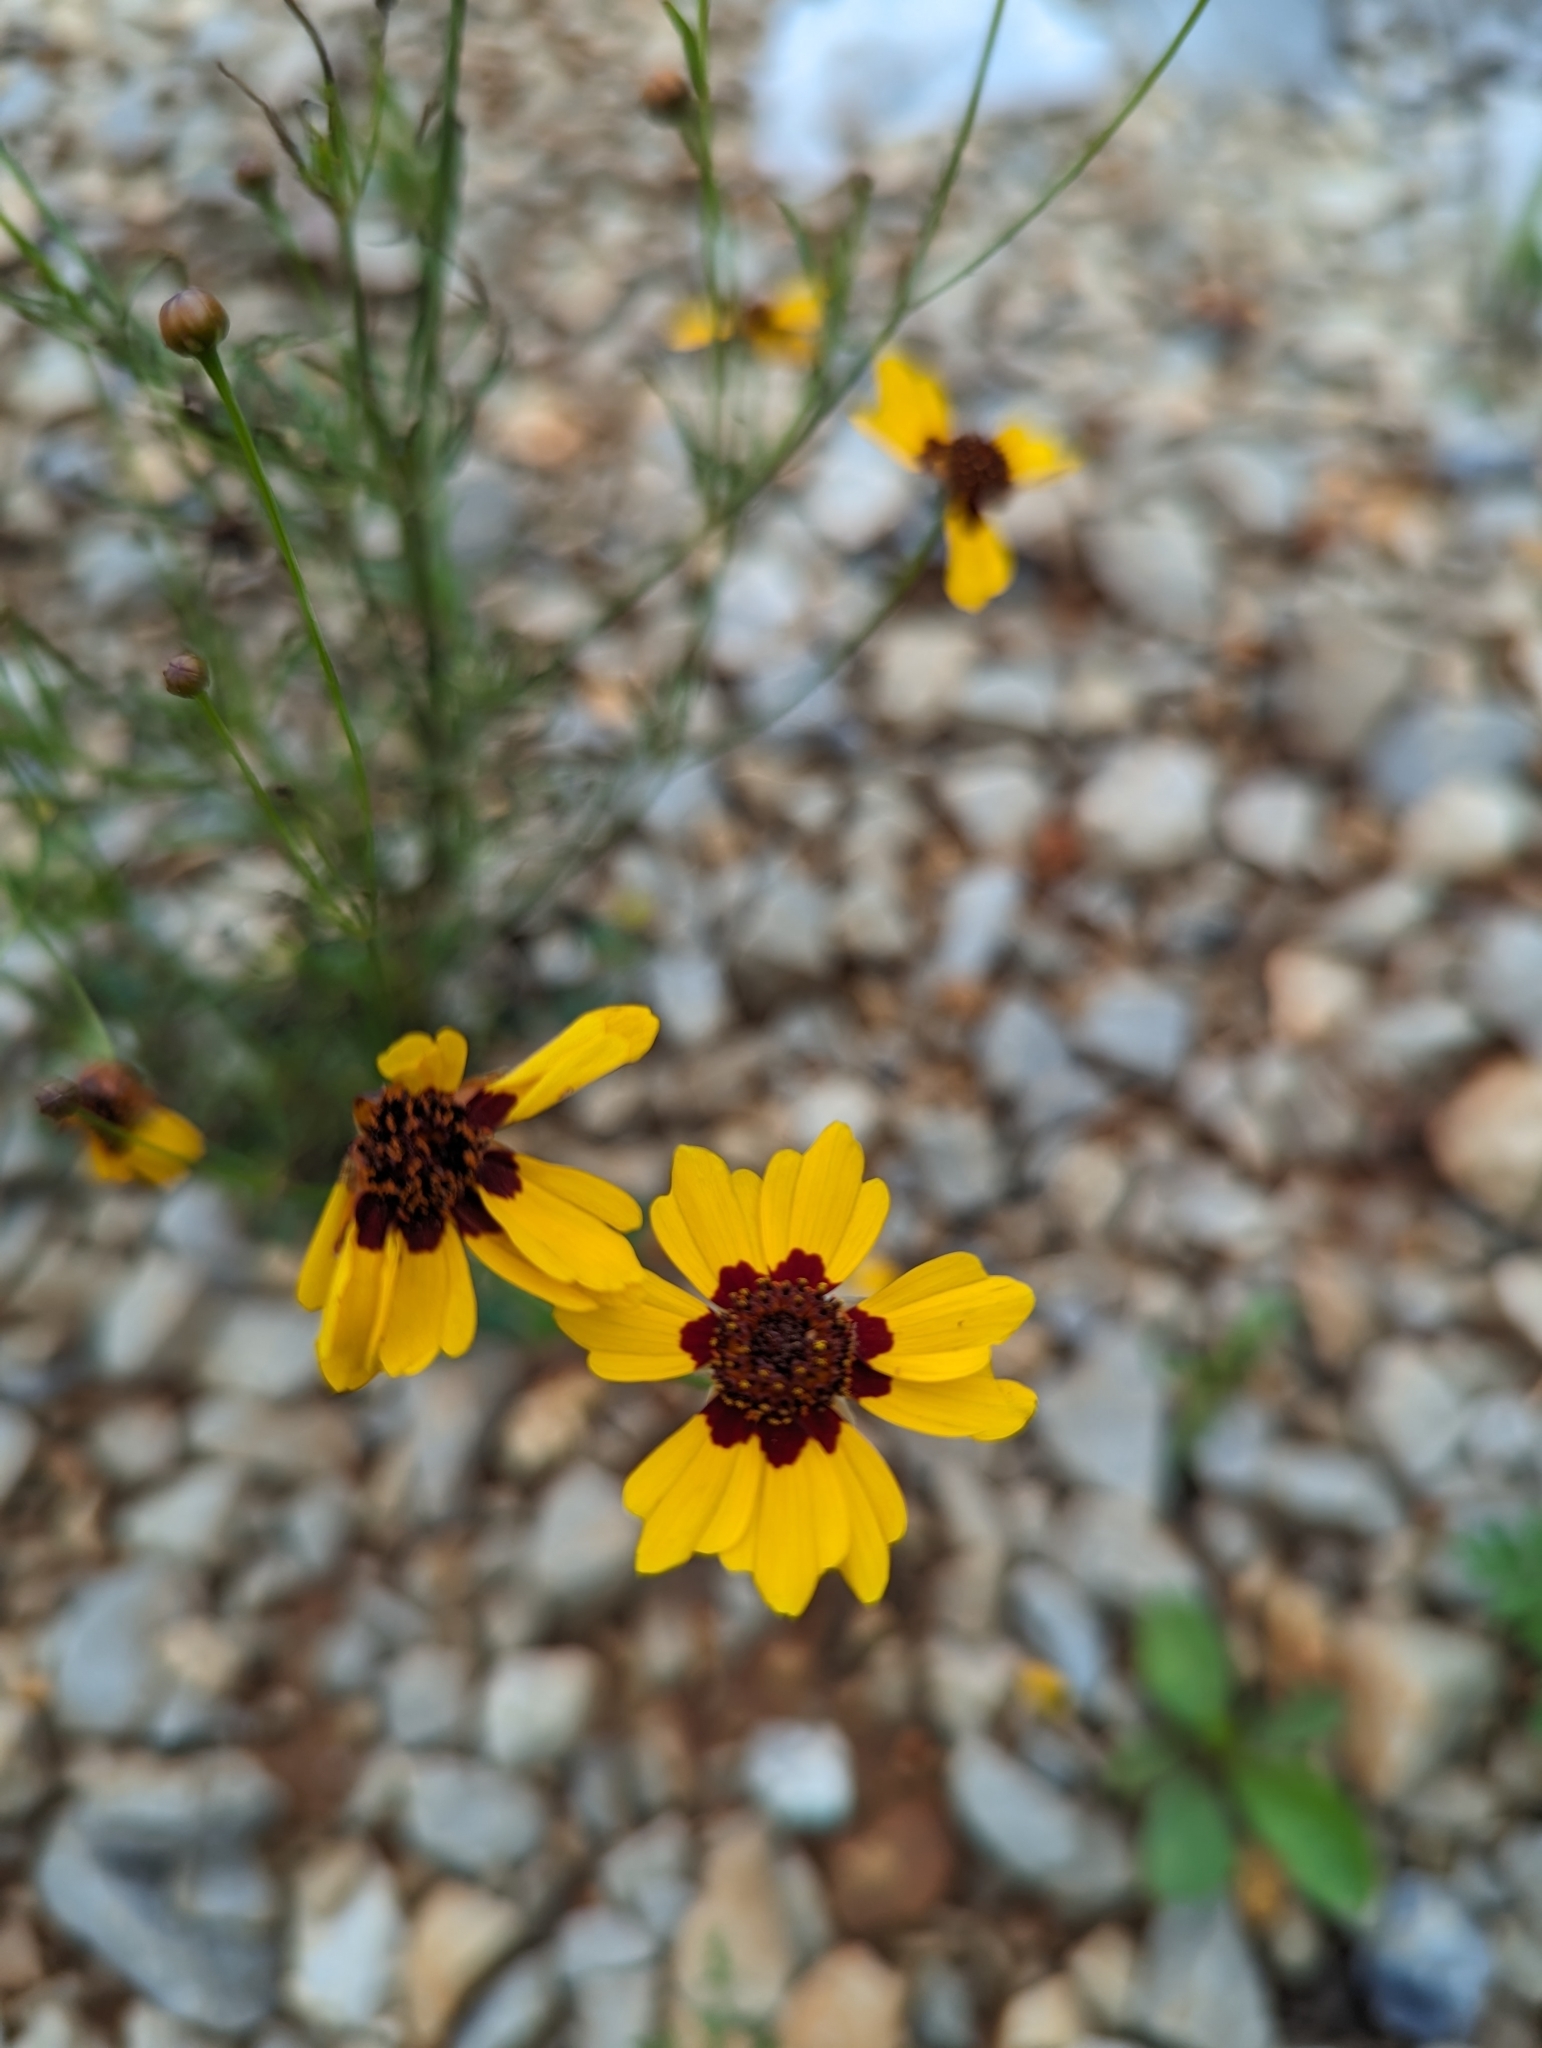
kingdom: Plantae
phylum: Tracheophyta
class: Magnoliopsida
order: Asterales
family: Asteraceae
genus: Coreopsis
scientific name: Coreopsis tinctoria
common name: Garden tickseed
